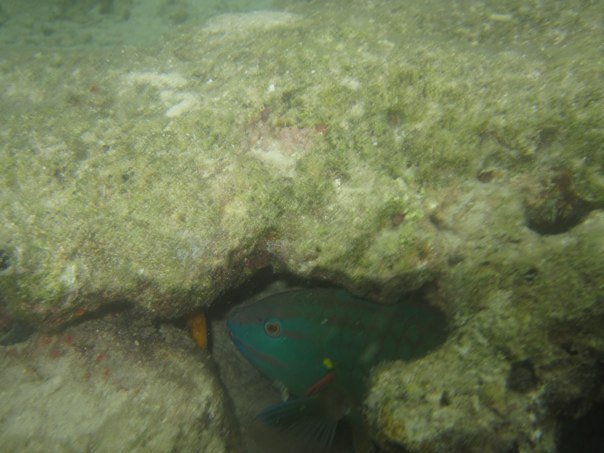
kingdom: Animalia
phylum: Chordata
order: Perciformes
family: Scaridae
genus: Sparisoma
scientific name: Sparisoma viride
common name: Stoplight parrotfish
